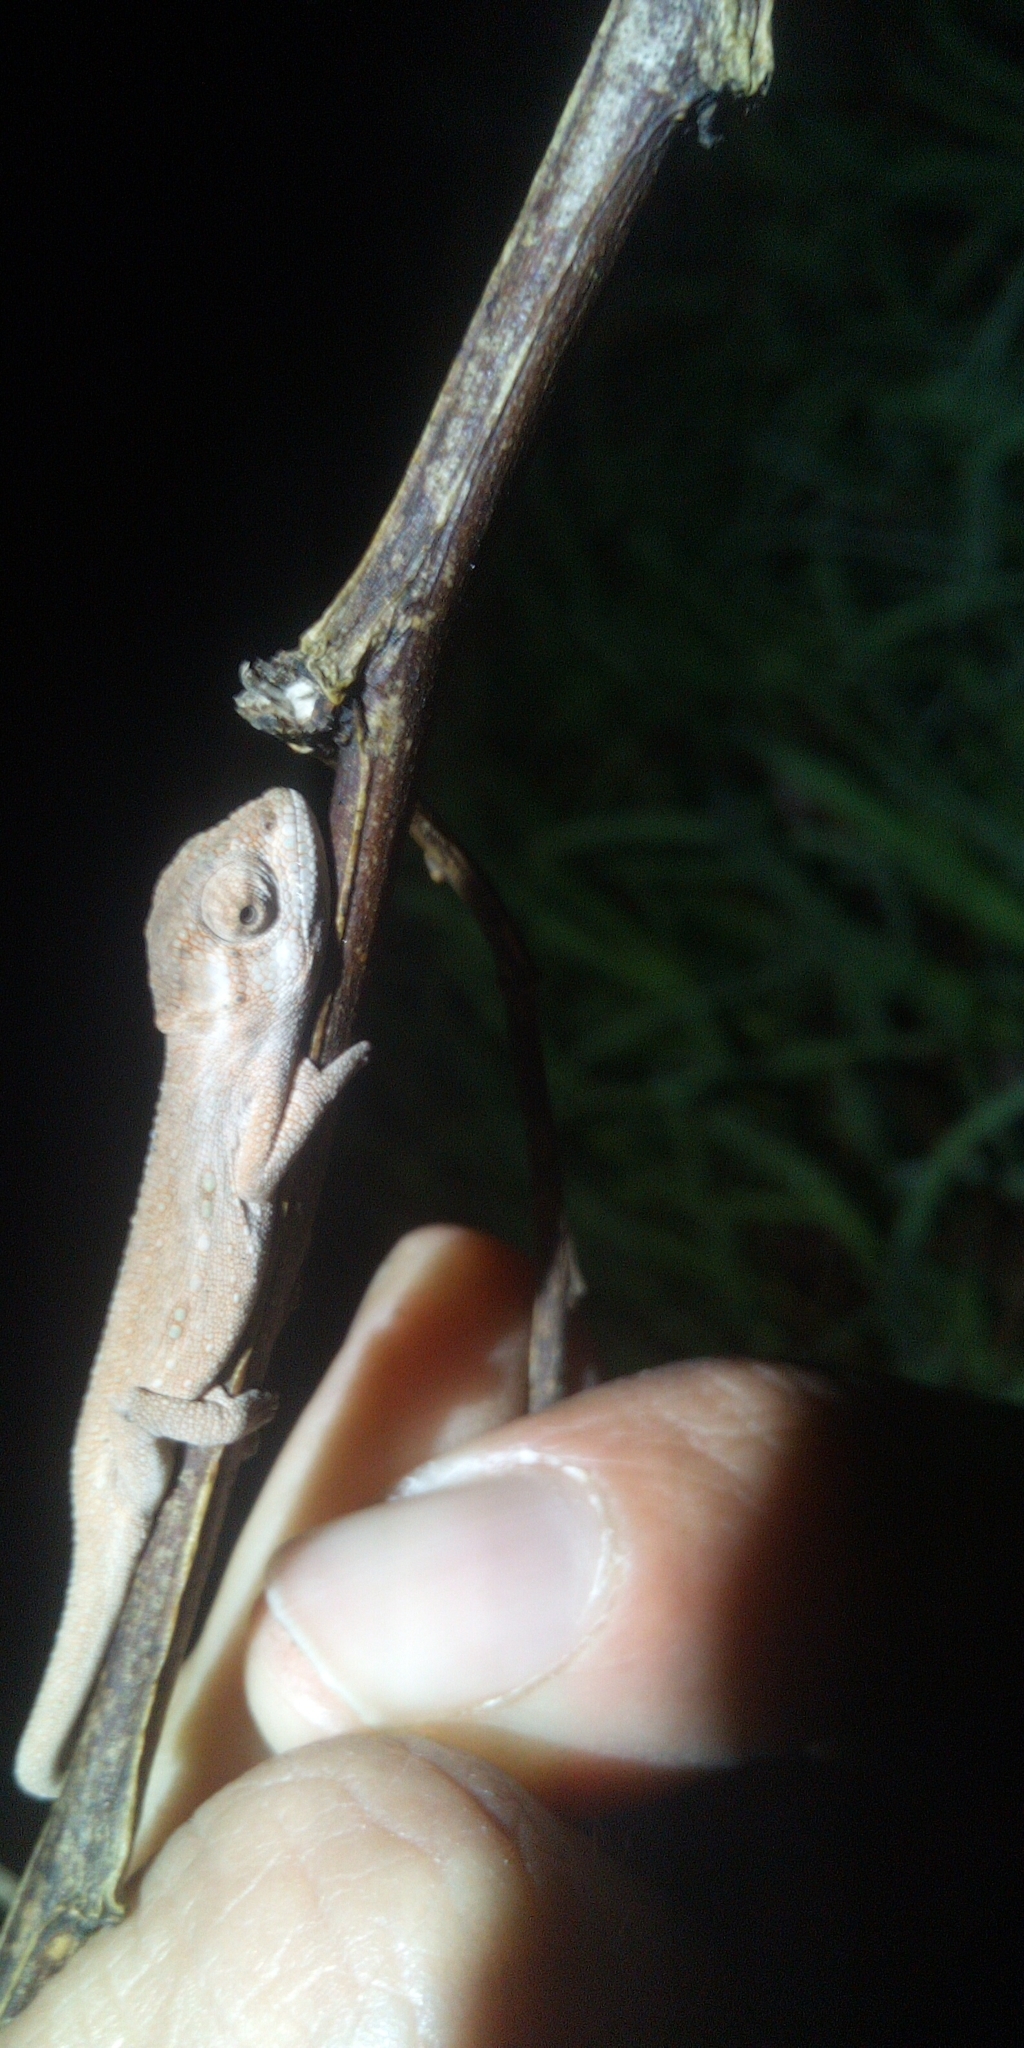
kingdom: Animalia
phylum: Chordata
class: Squamata
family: Chamaeleonidae
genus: Bradypodion
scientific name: Bradypodion pumilum
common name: Cape dwarf chameleon
